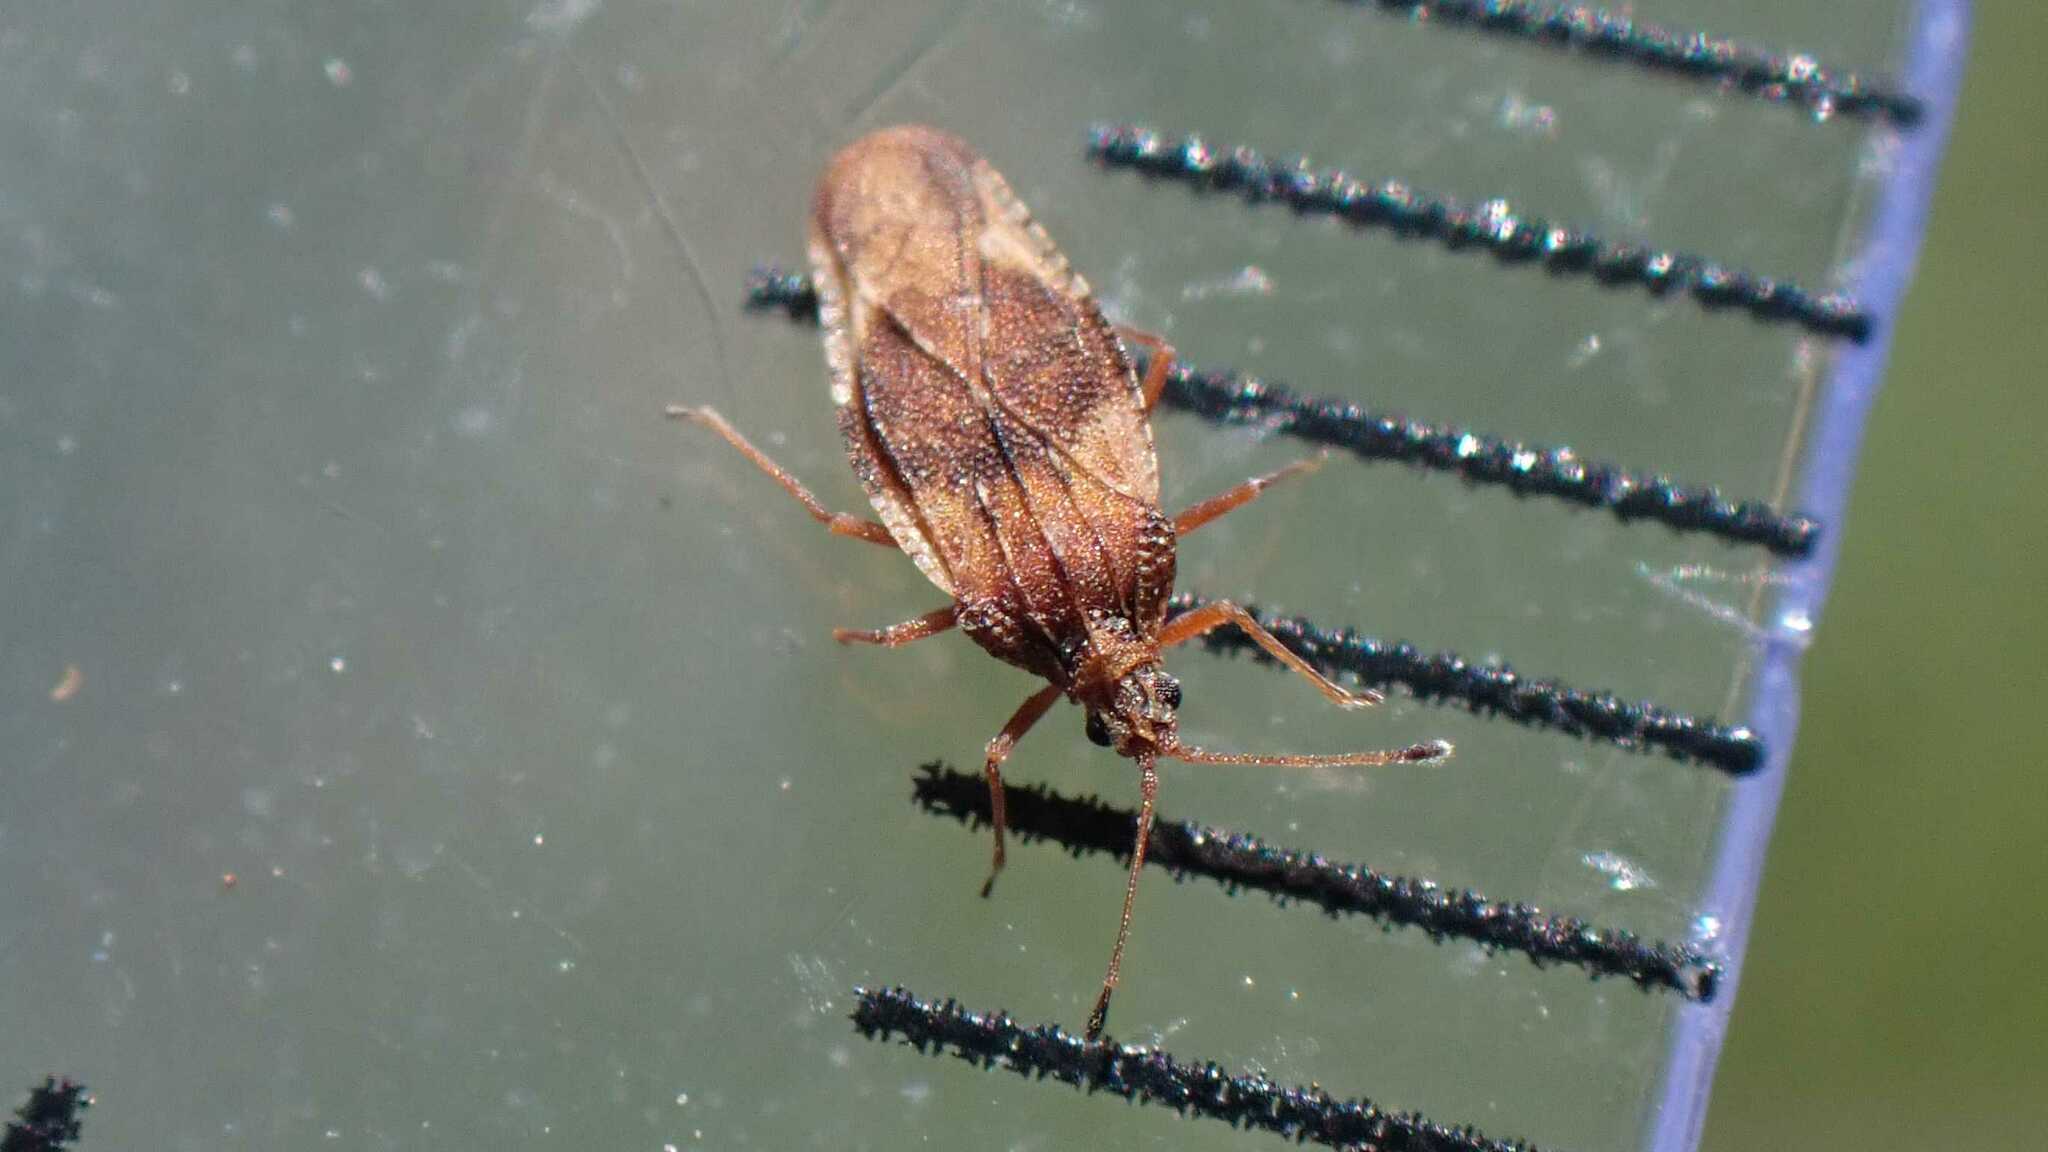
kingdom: Animalia
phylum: Arthropoda
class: Insecta
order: Hemiptera
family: Tingidae
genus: Physatocheila
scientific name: Physatocheila dumetorum
